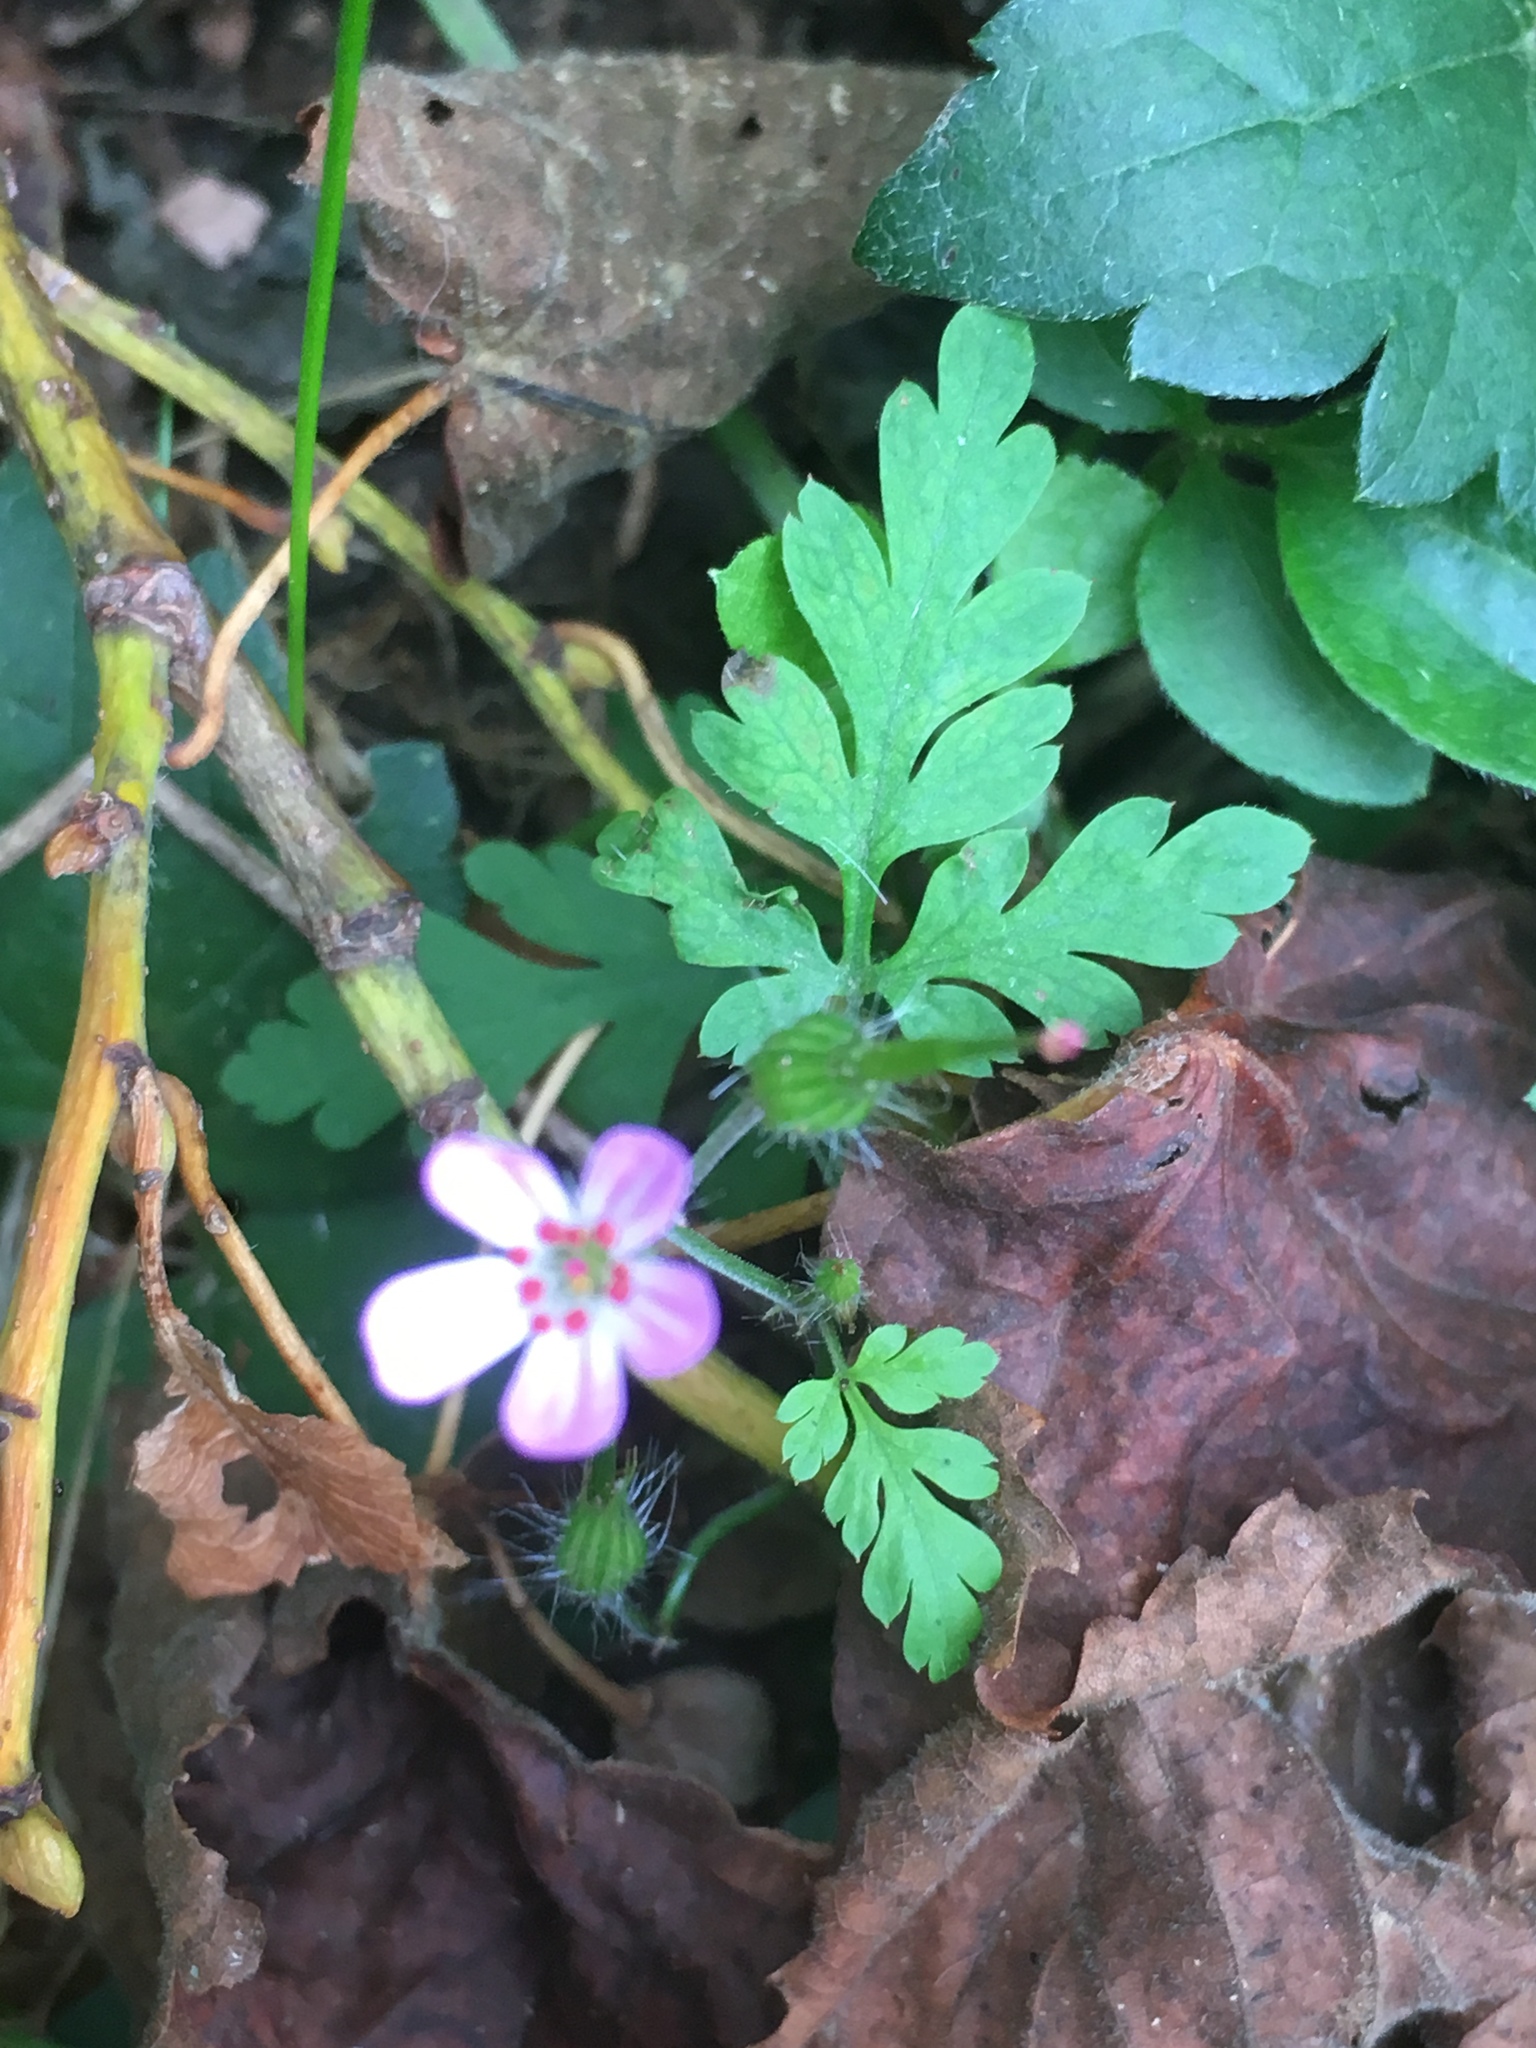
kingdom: Plantae
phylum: Tracheophyta
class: Magnoliopsida
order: Geraniales
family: Geraniaceae
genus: Geranium
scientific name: Geranium robertianum
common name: Herb-robert
